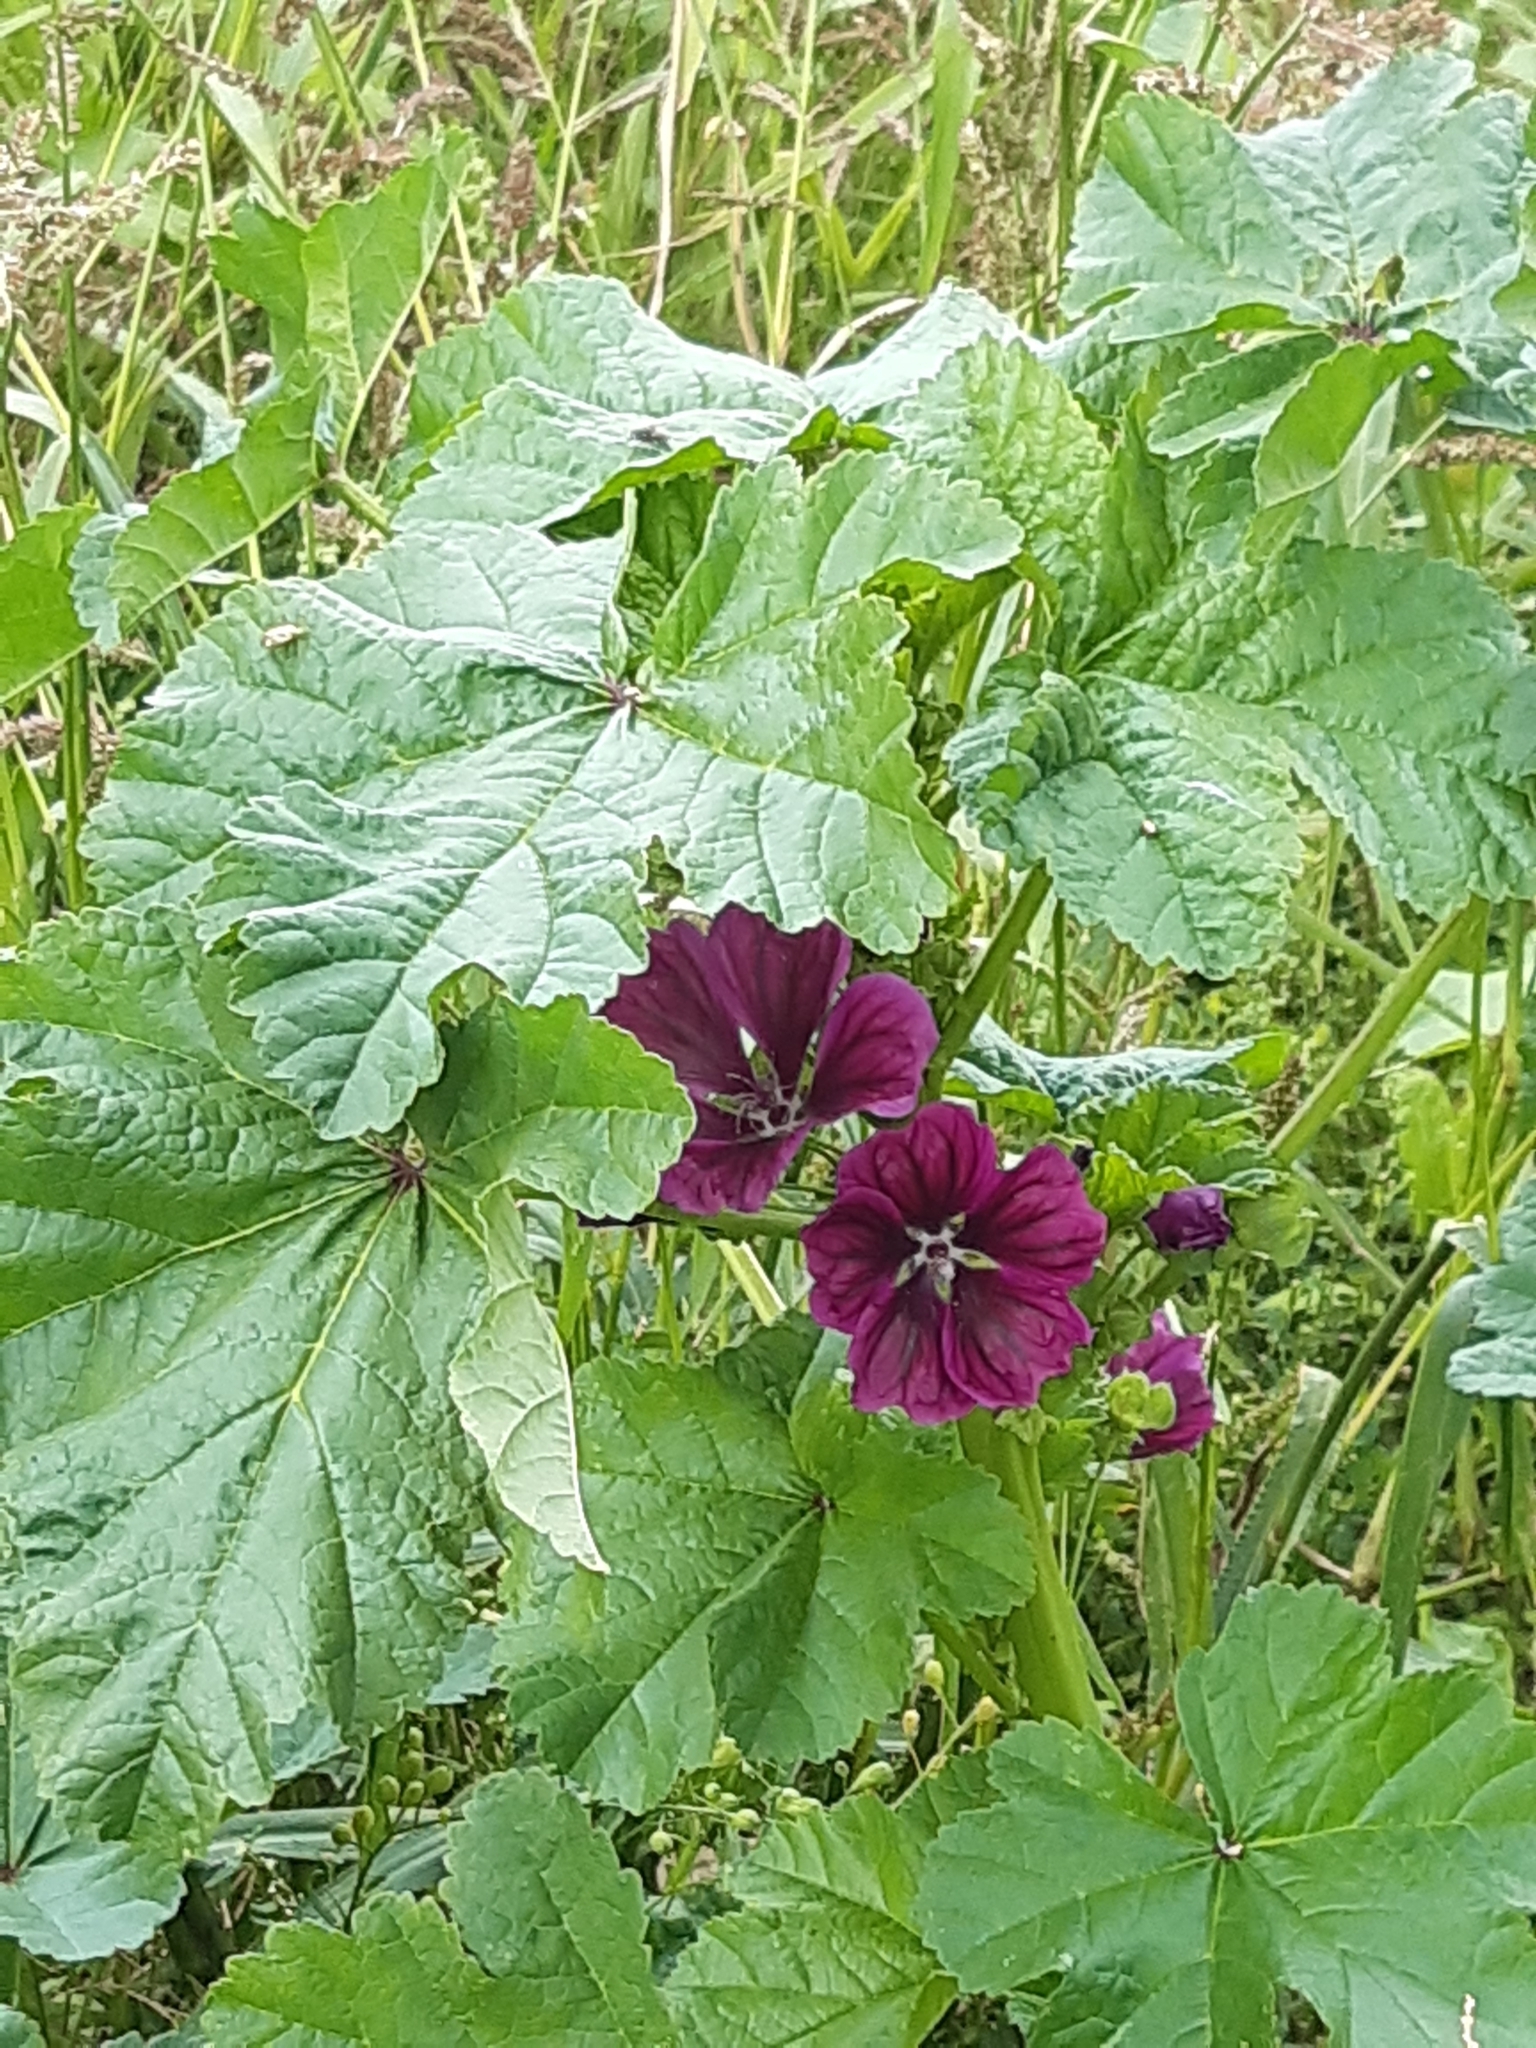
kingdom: Plantae
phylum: Tracheophyta
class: Magnoliopsida
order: Malvales
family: Malvaceae
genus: Malva
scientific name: Malva sylvestris
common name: Common mallow
